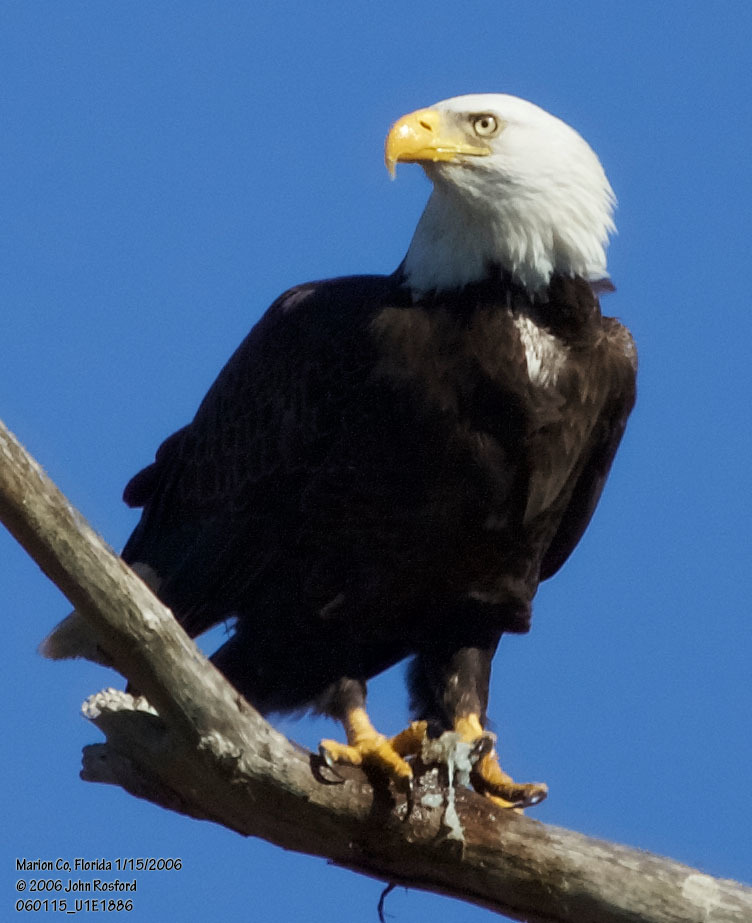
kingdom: Animalia
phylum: Chordata
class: Aves
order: Accipitriformes
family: Accipitridae
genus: Haliaeetus
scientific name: Haliaeetus leucocephalus
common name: Bald eagle
